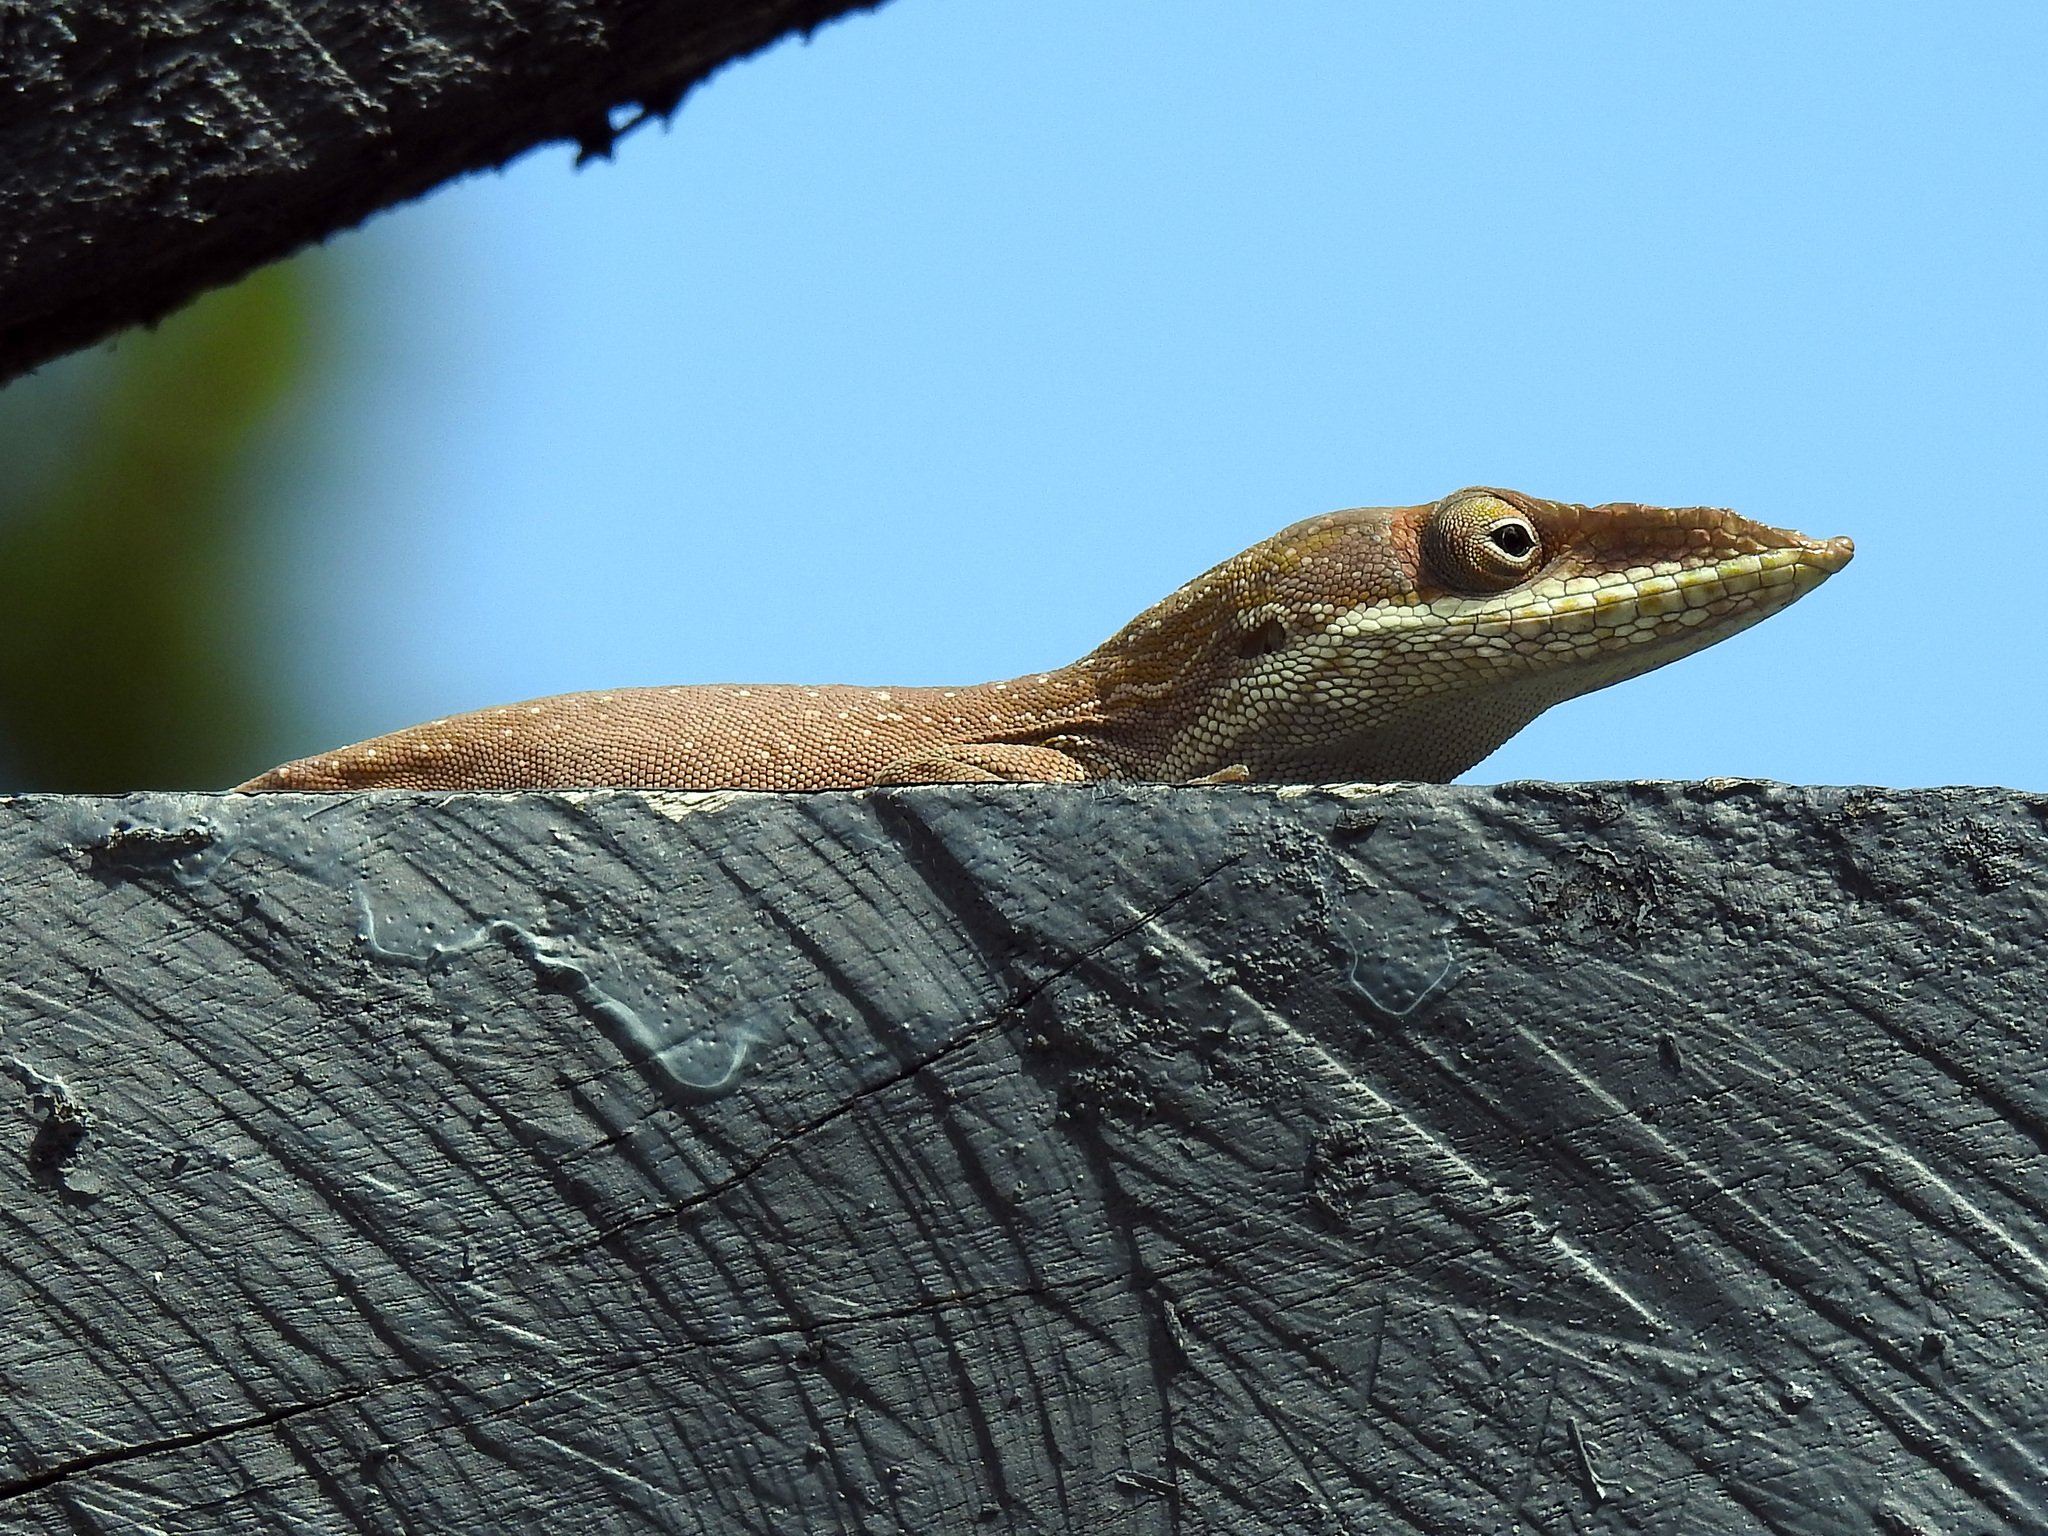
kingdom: Animalia
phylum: Chordata
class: Squamata
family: Dactyloidae
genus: Anolis
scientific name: Anolis allisoni
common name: Allison's anole
